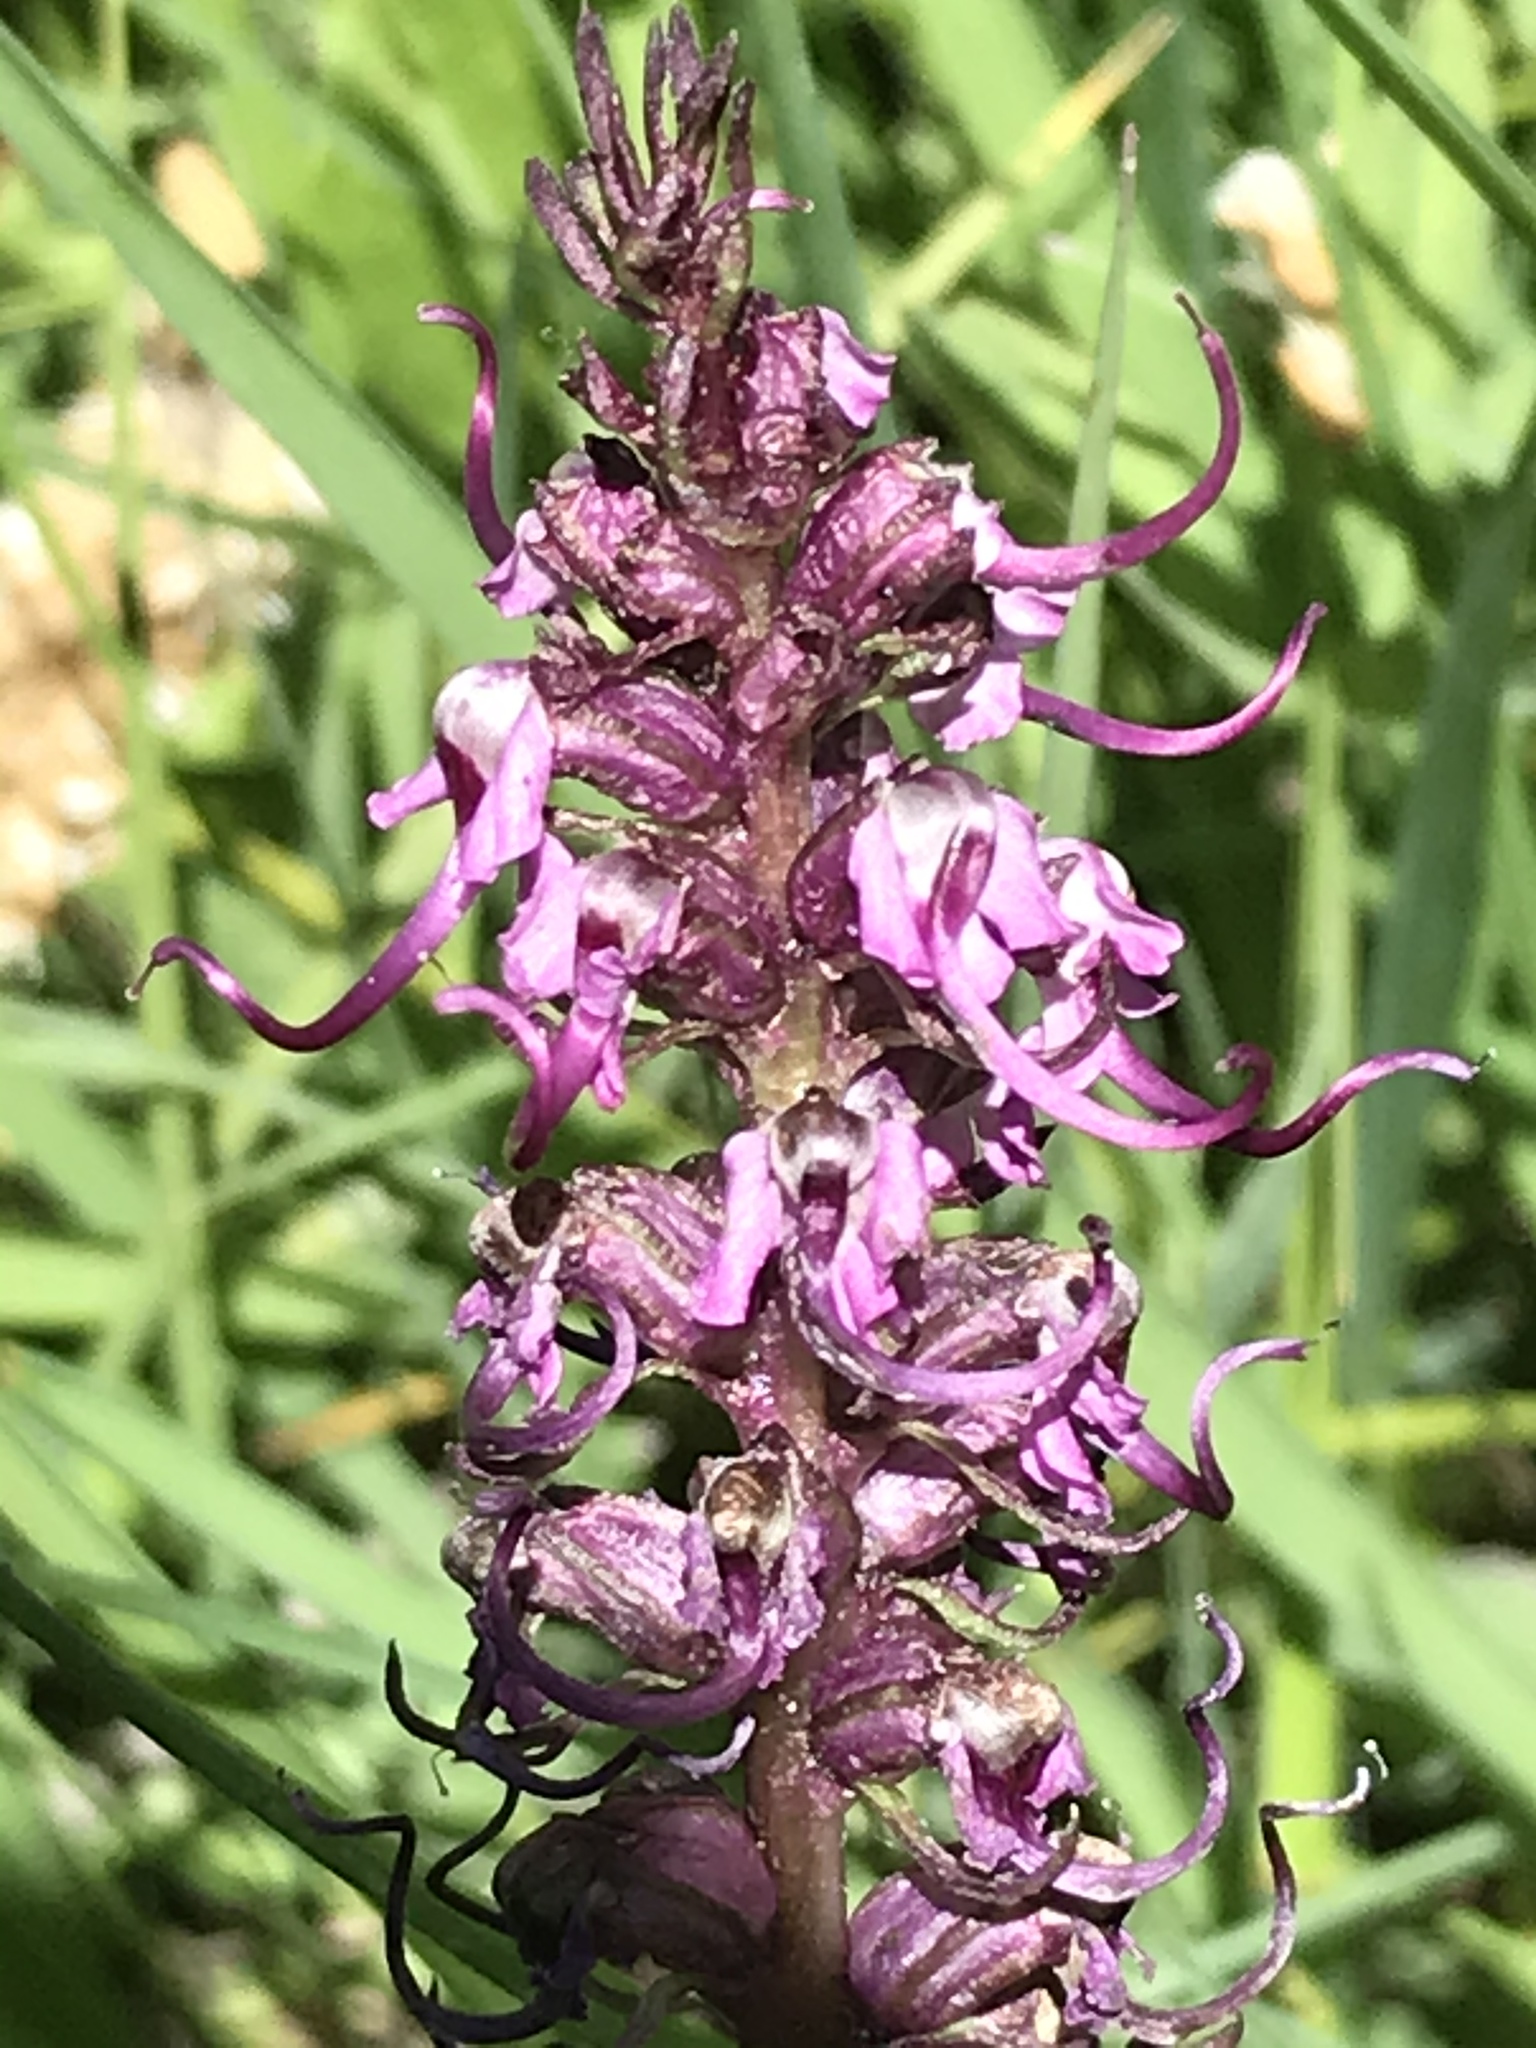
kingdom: Plantae
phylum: Tracheophyta
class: Magnoliopsida
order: Lamiales
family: Orobanchaceae
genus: Pedicularis
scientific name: Pedicularis groenlandica
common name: Elephant's-head
